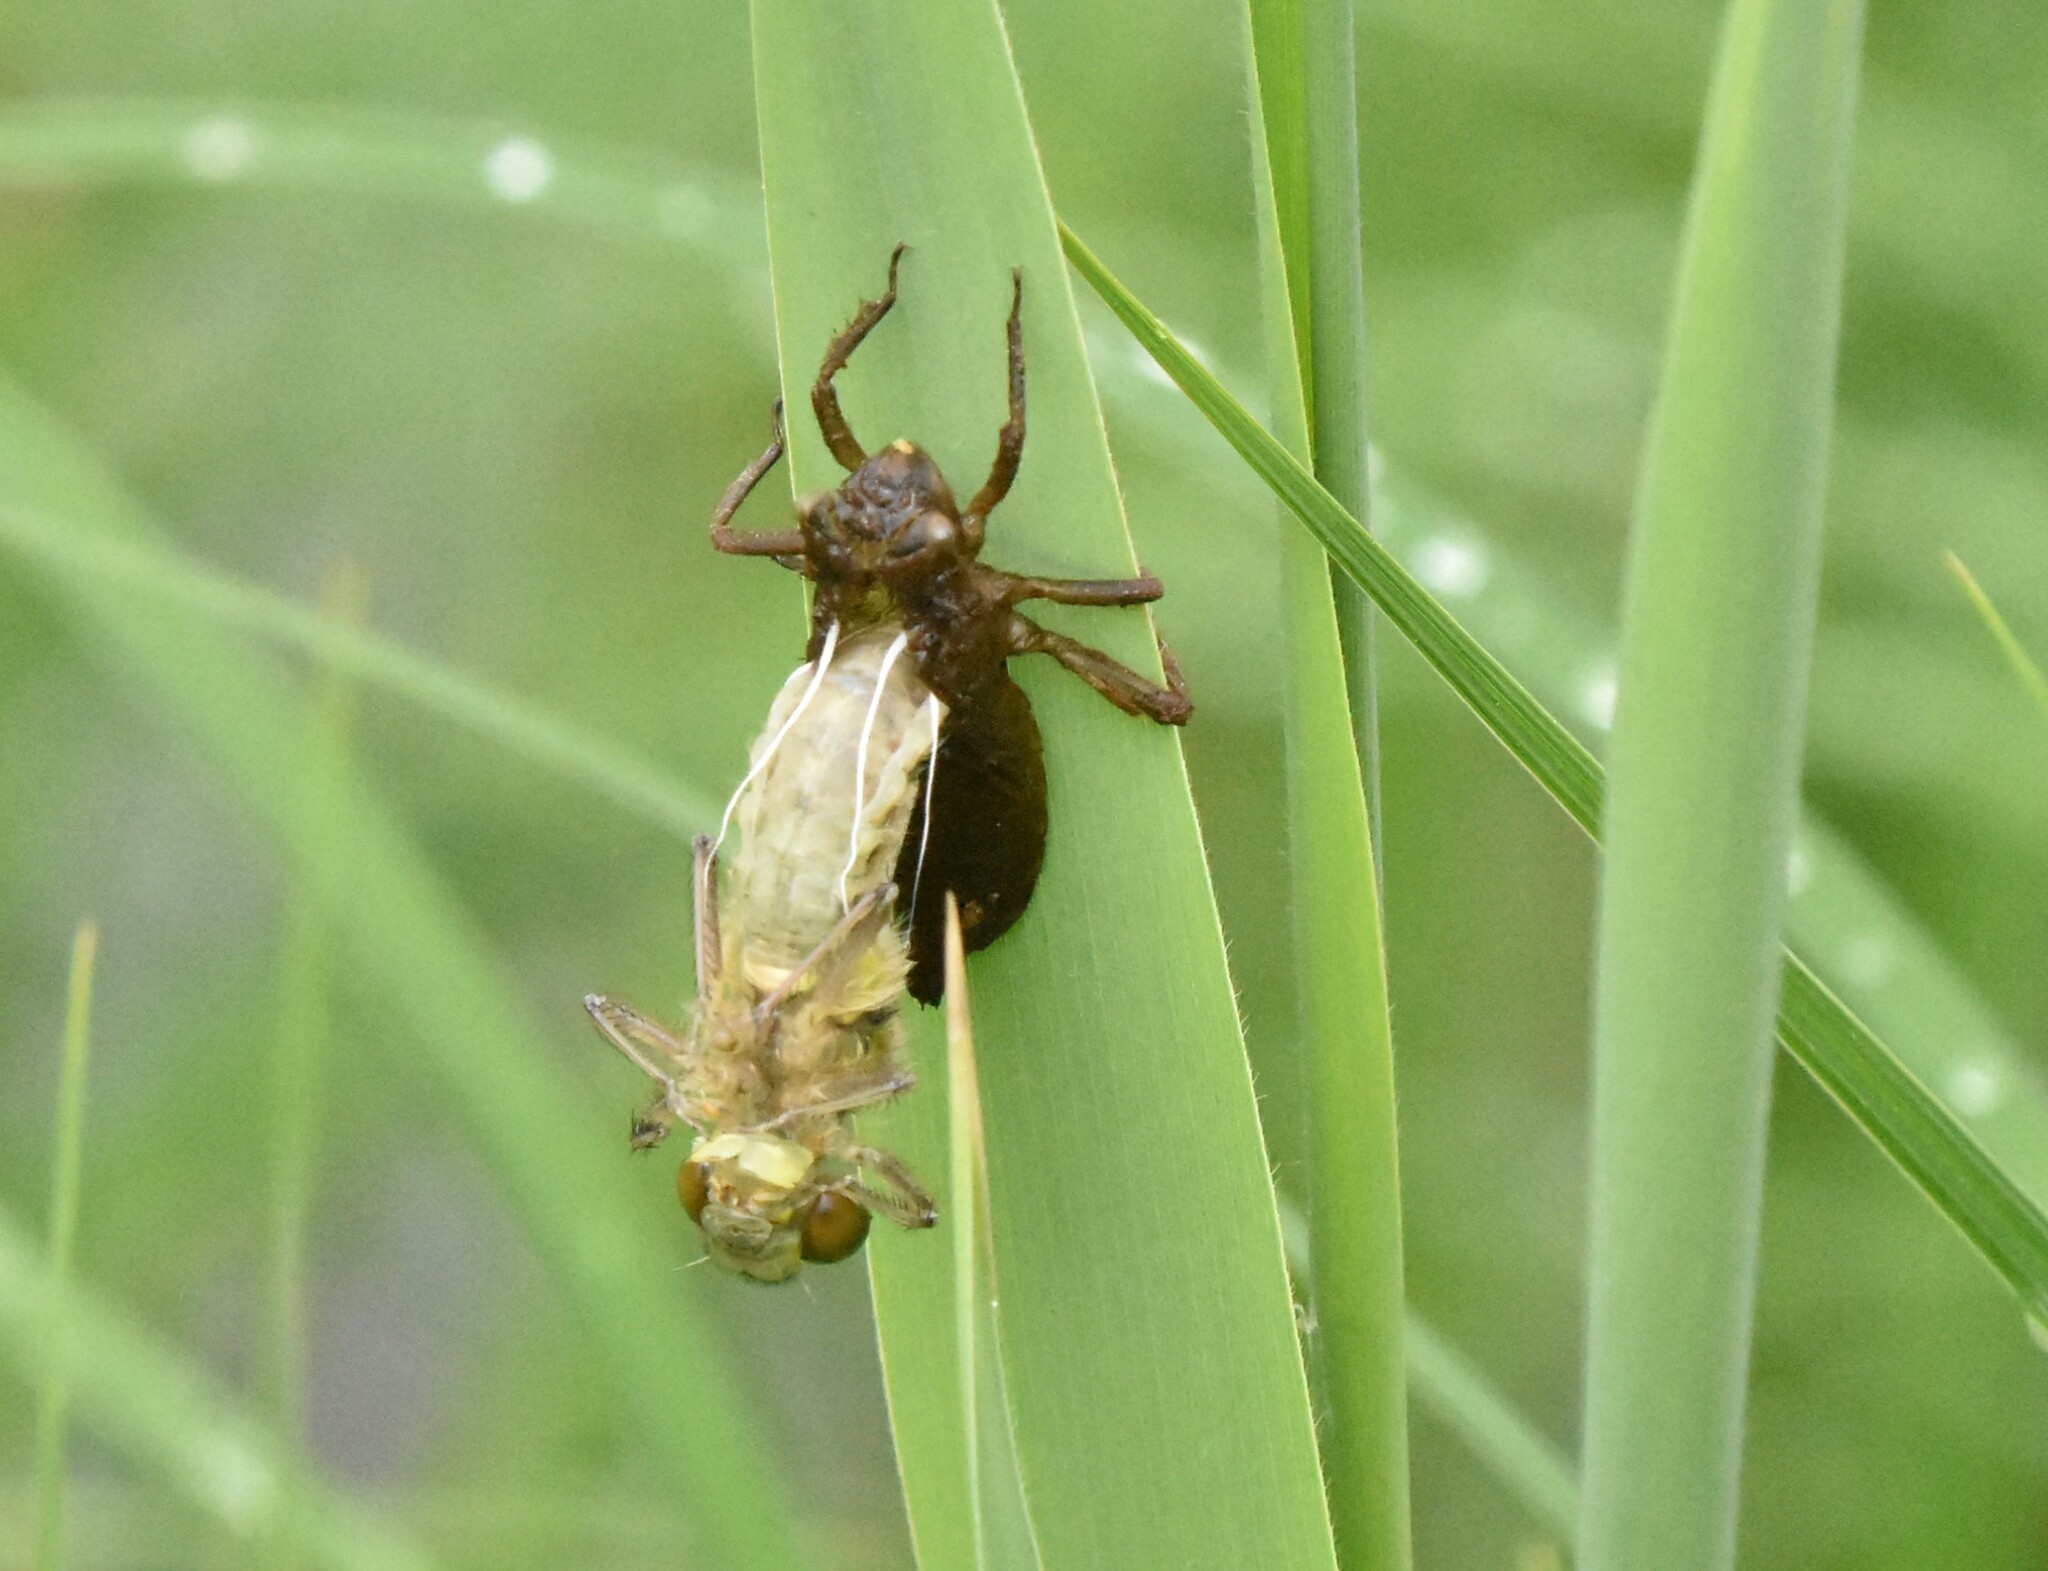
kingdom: Animalia
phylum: Arthropoda
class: Insecta
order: Odonata
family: Libellulidae
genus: Libellula
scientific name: Libellula quadrimaculata
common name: Four-spotted chaser
